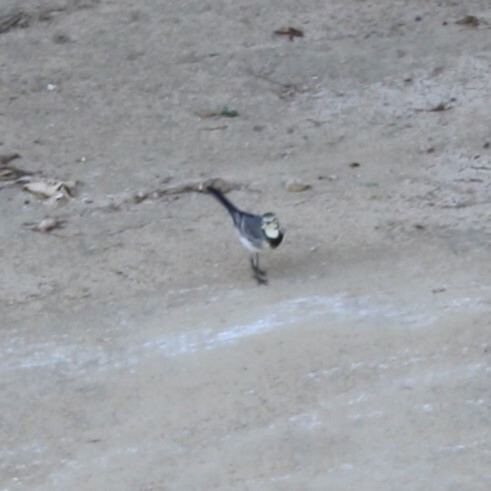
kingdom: Animalia
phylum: Chordata
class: Aves
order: Passeriformes
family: Motacillidae
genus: Motacilla
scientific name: Motacilla alba
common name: White wagtail
